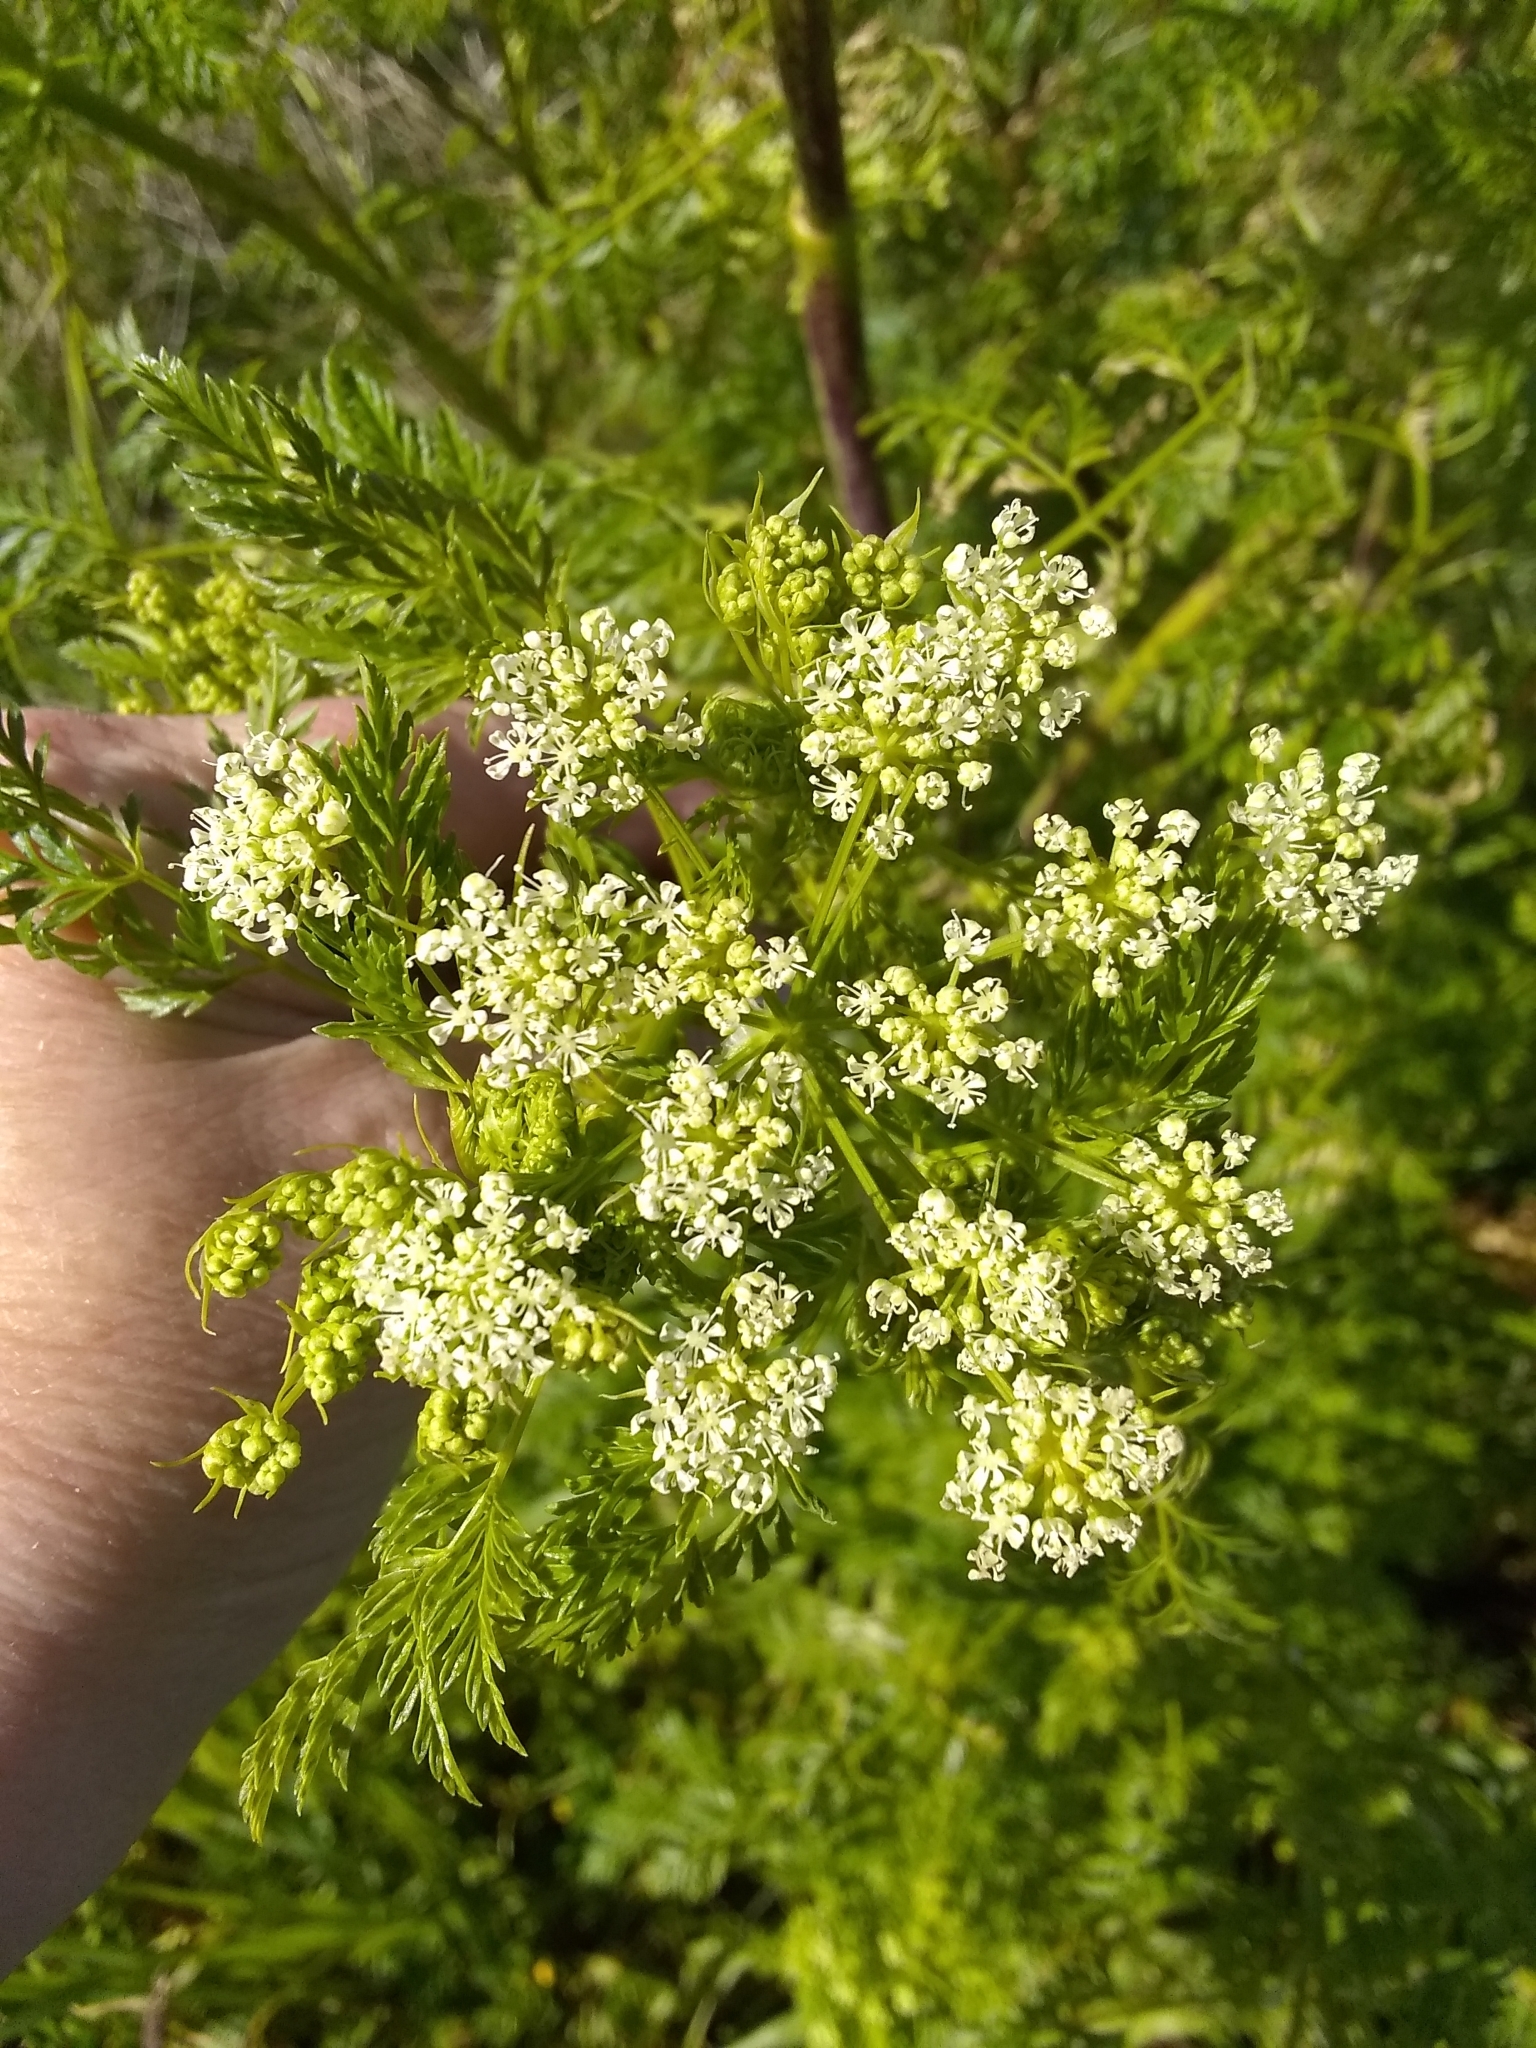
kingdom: Plantae
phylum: Tracheophyta
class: Magnoliopsida
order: Apiales
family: Apiaceae
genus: Conium
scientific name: Conium maculatum
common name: Hemlock
